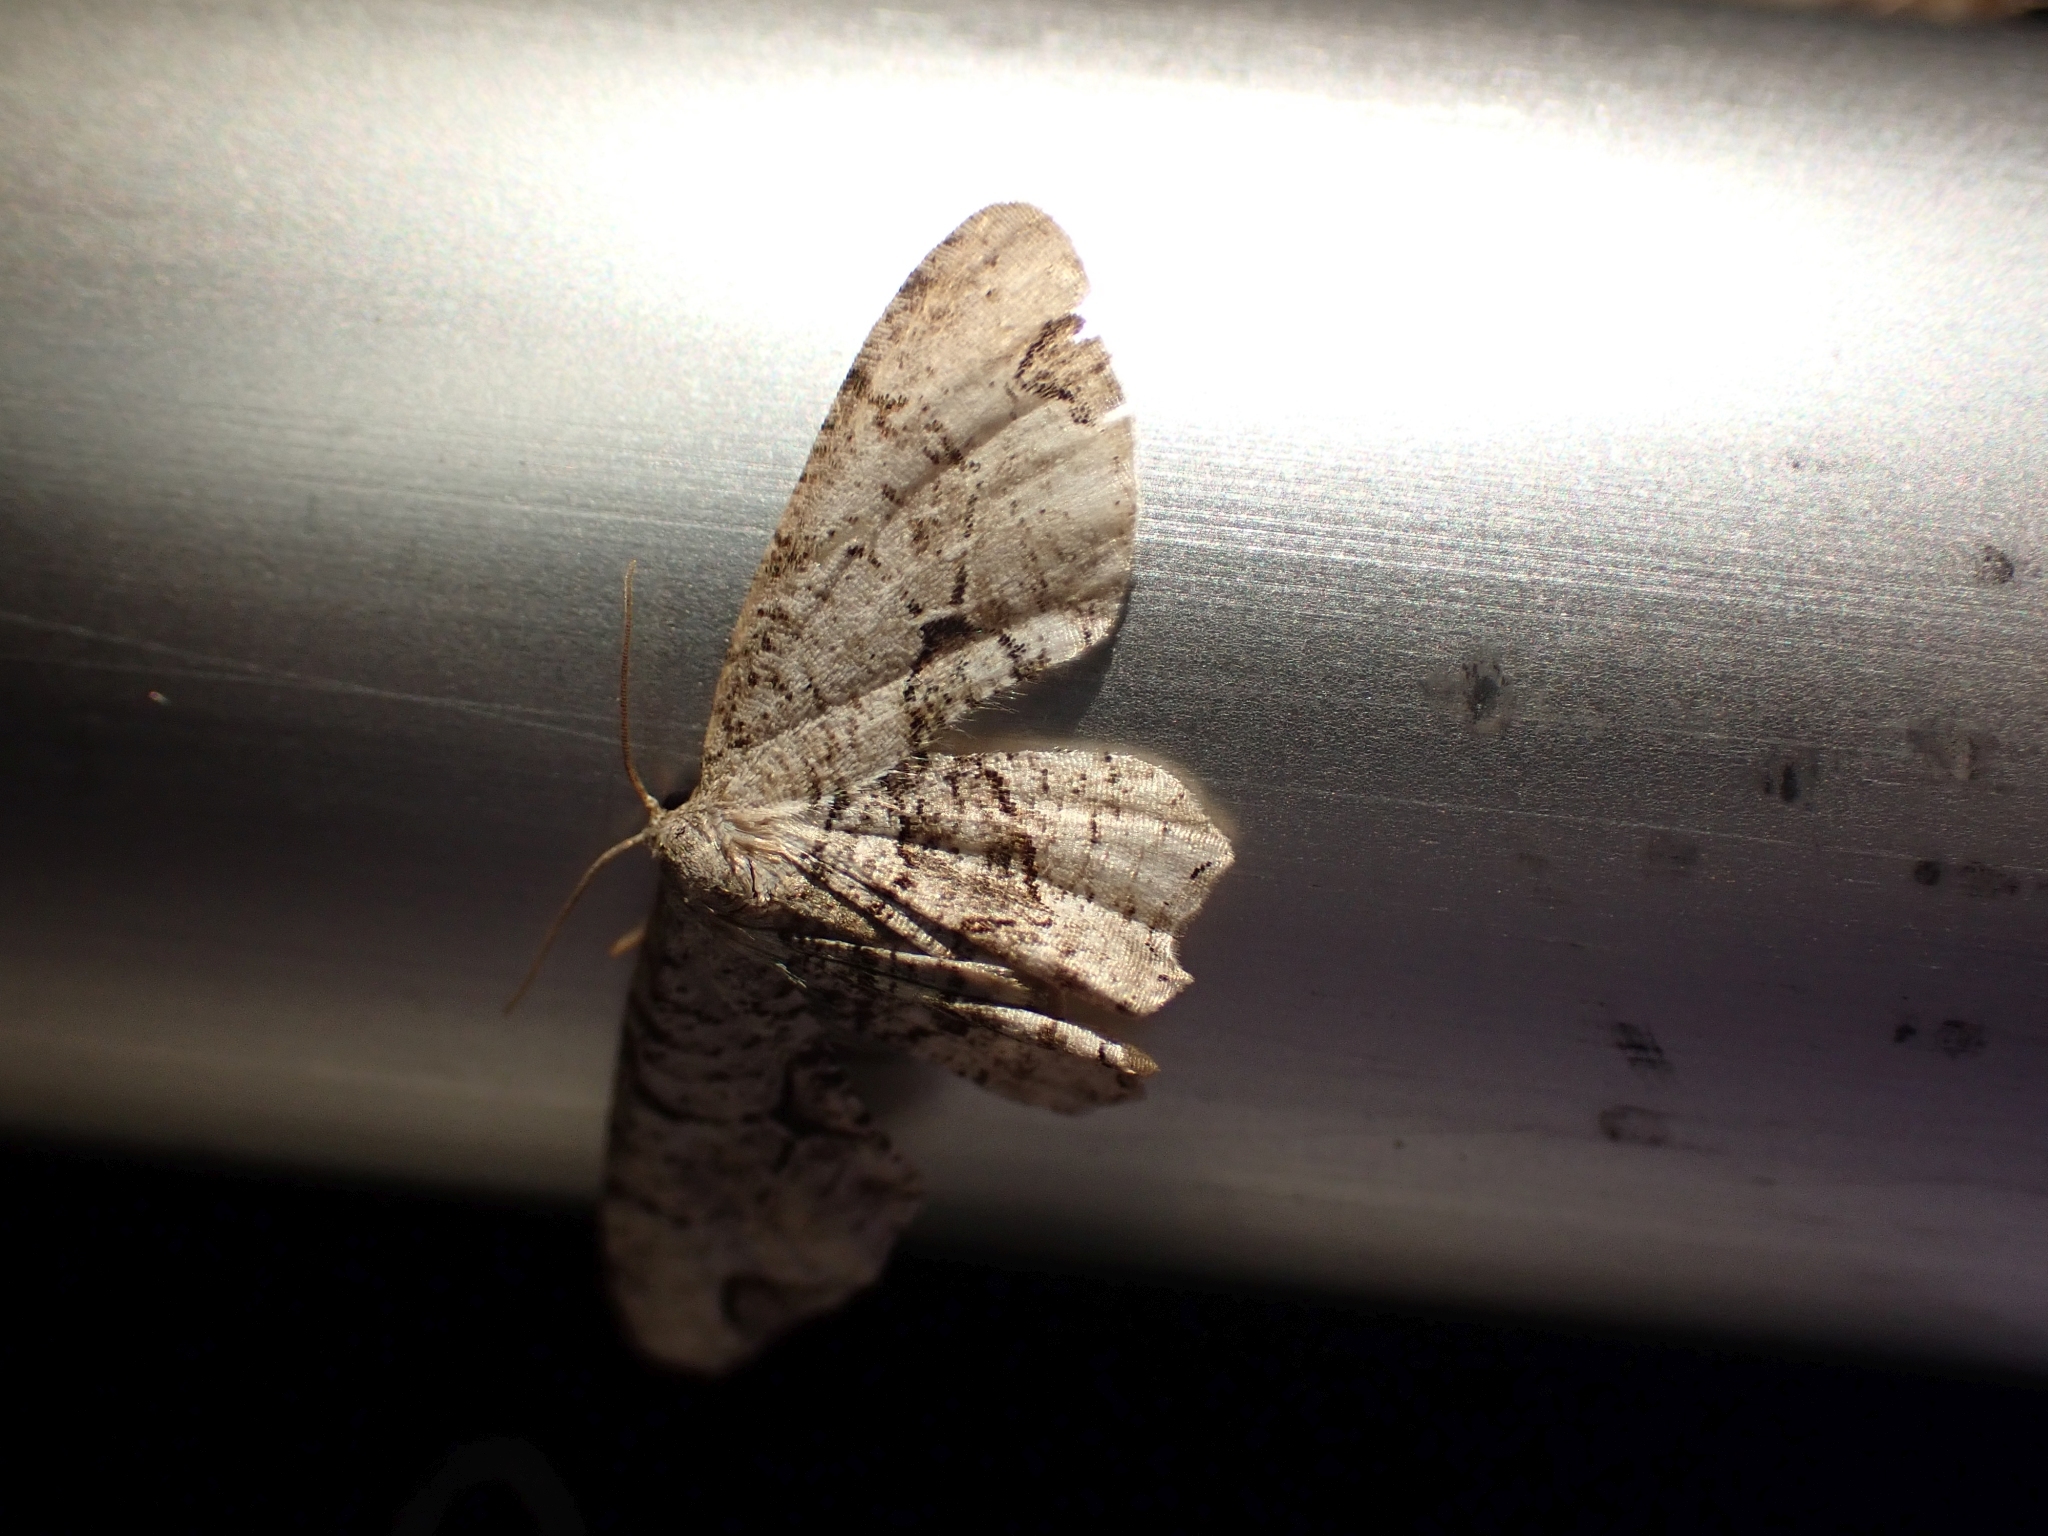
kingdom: Animalia
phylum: Arthropoda
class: Insecta
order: Lepidoptera
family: Uraniidae
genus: Epiplema
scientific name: Epiplema Callizzia amorata
